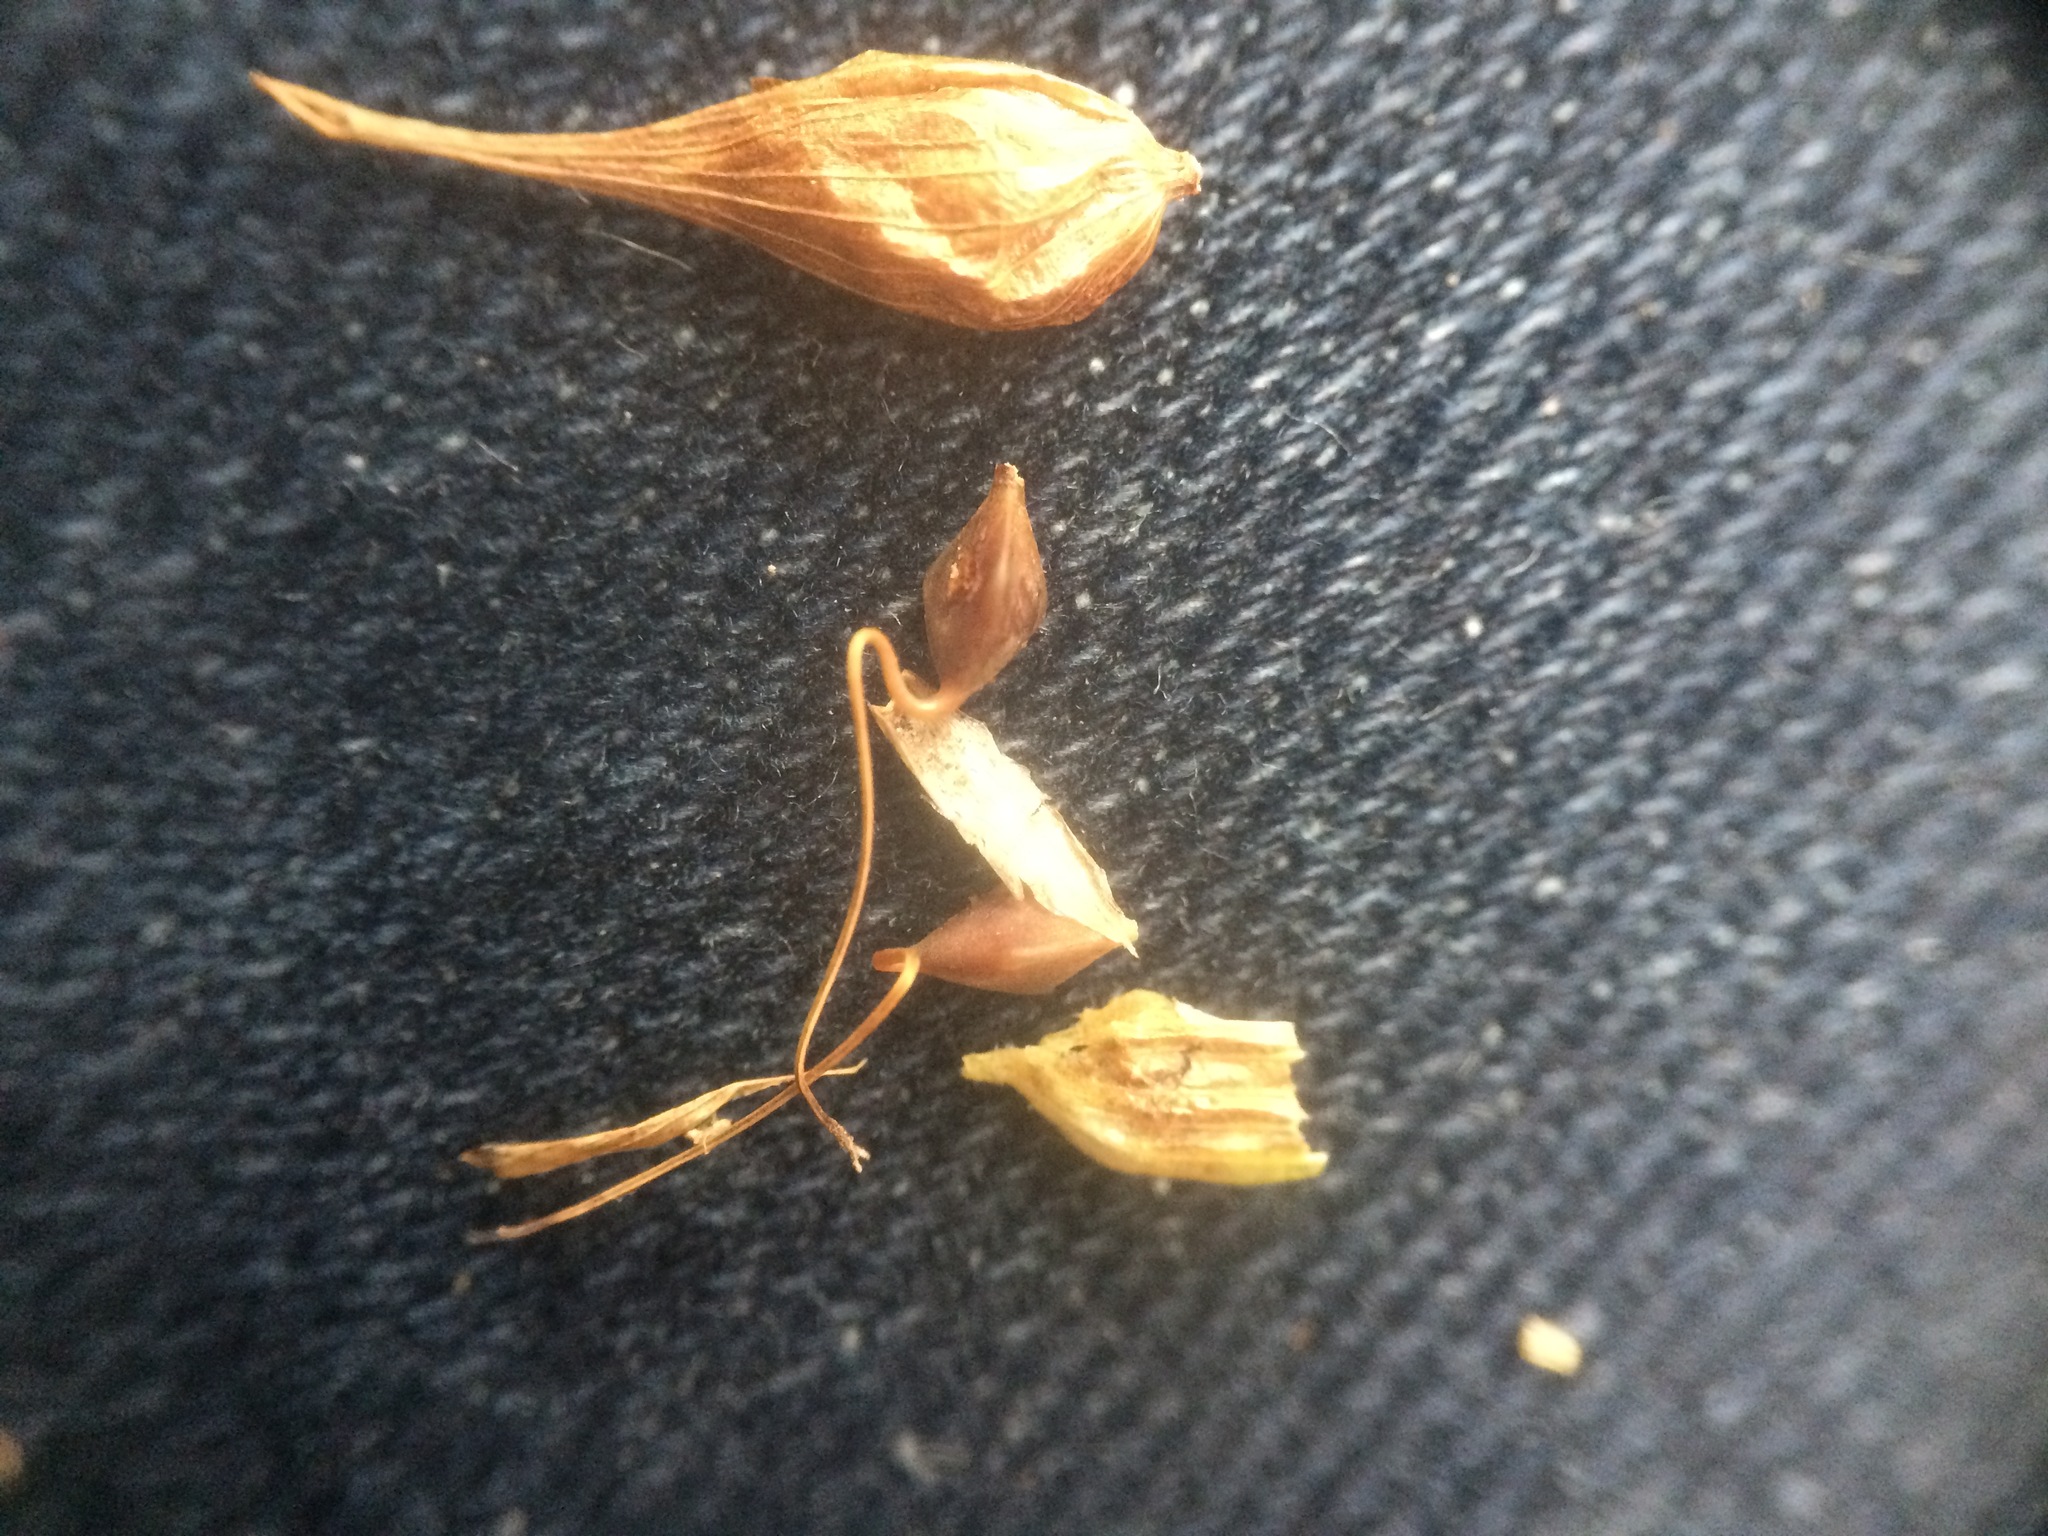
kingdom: Plantae
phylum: Tracheophyta
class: Liliopsida
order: Poales
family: Cyperaceae
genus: Carex
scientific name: Carex lupulina
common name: Hop sedge
